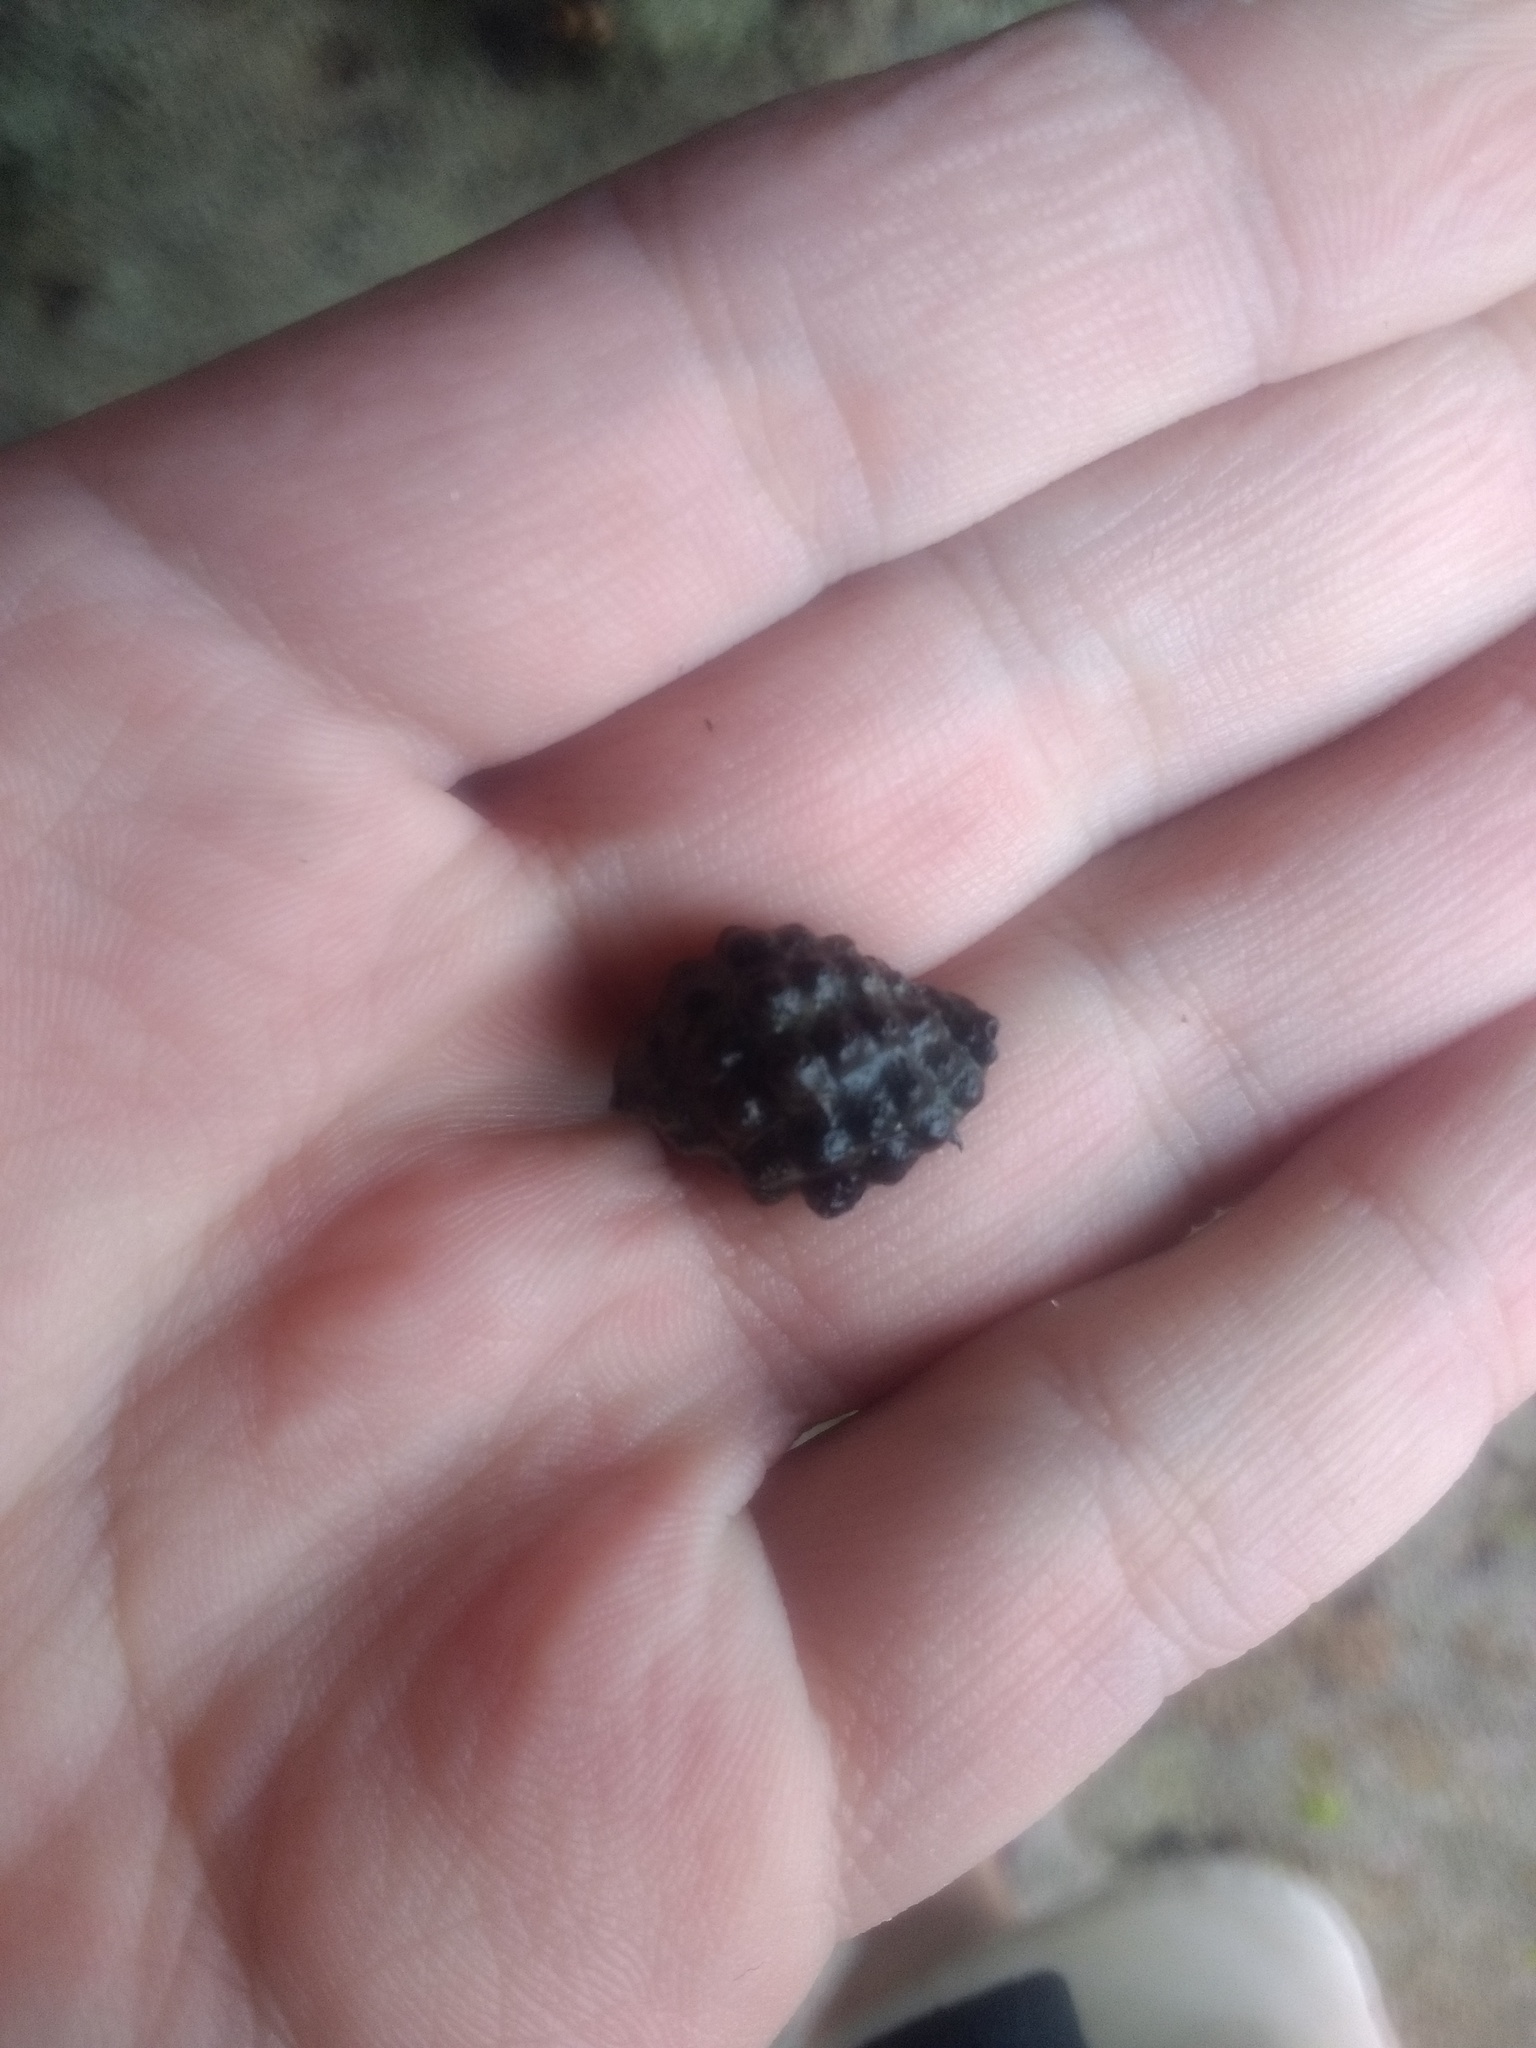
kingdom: Animalia
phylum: Mollusca
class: Gastropoda
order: Neogastropoda
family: Muricidae
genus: Tenguella
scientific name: Tenguella granulata
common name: Granular drupe
